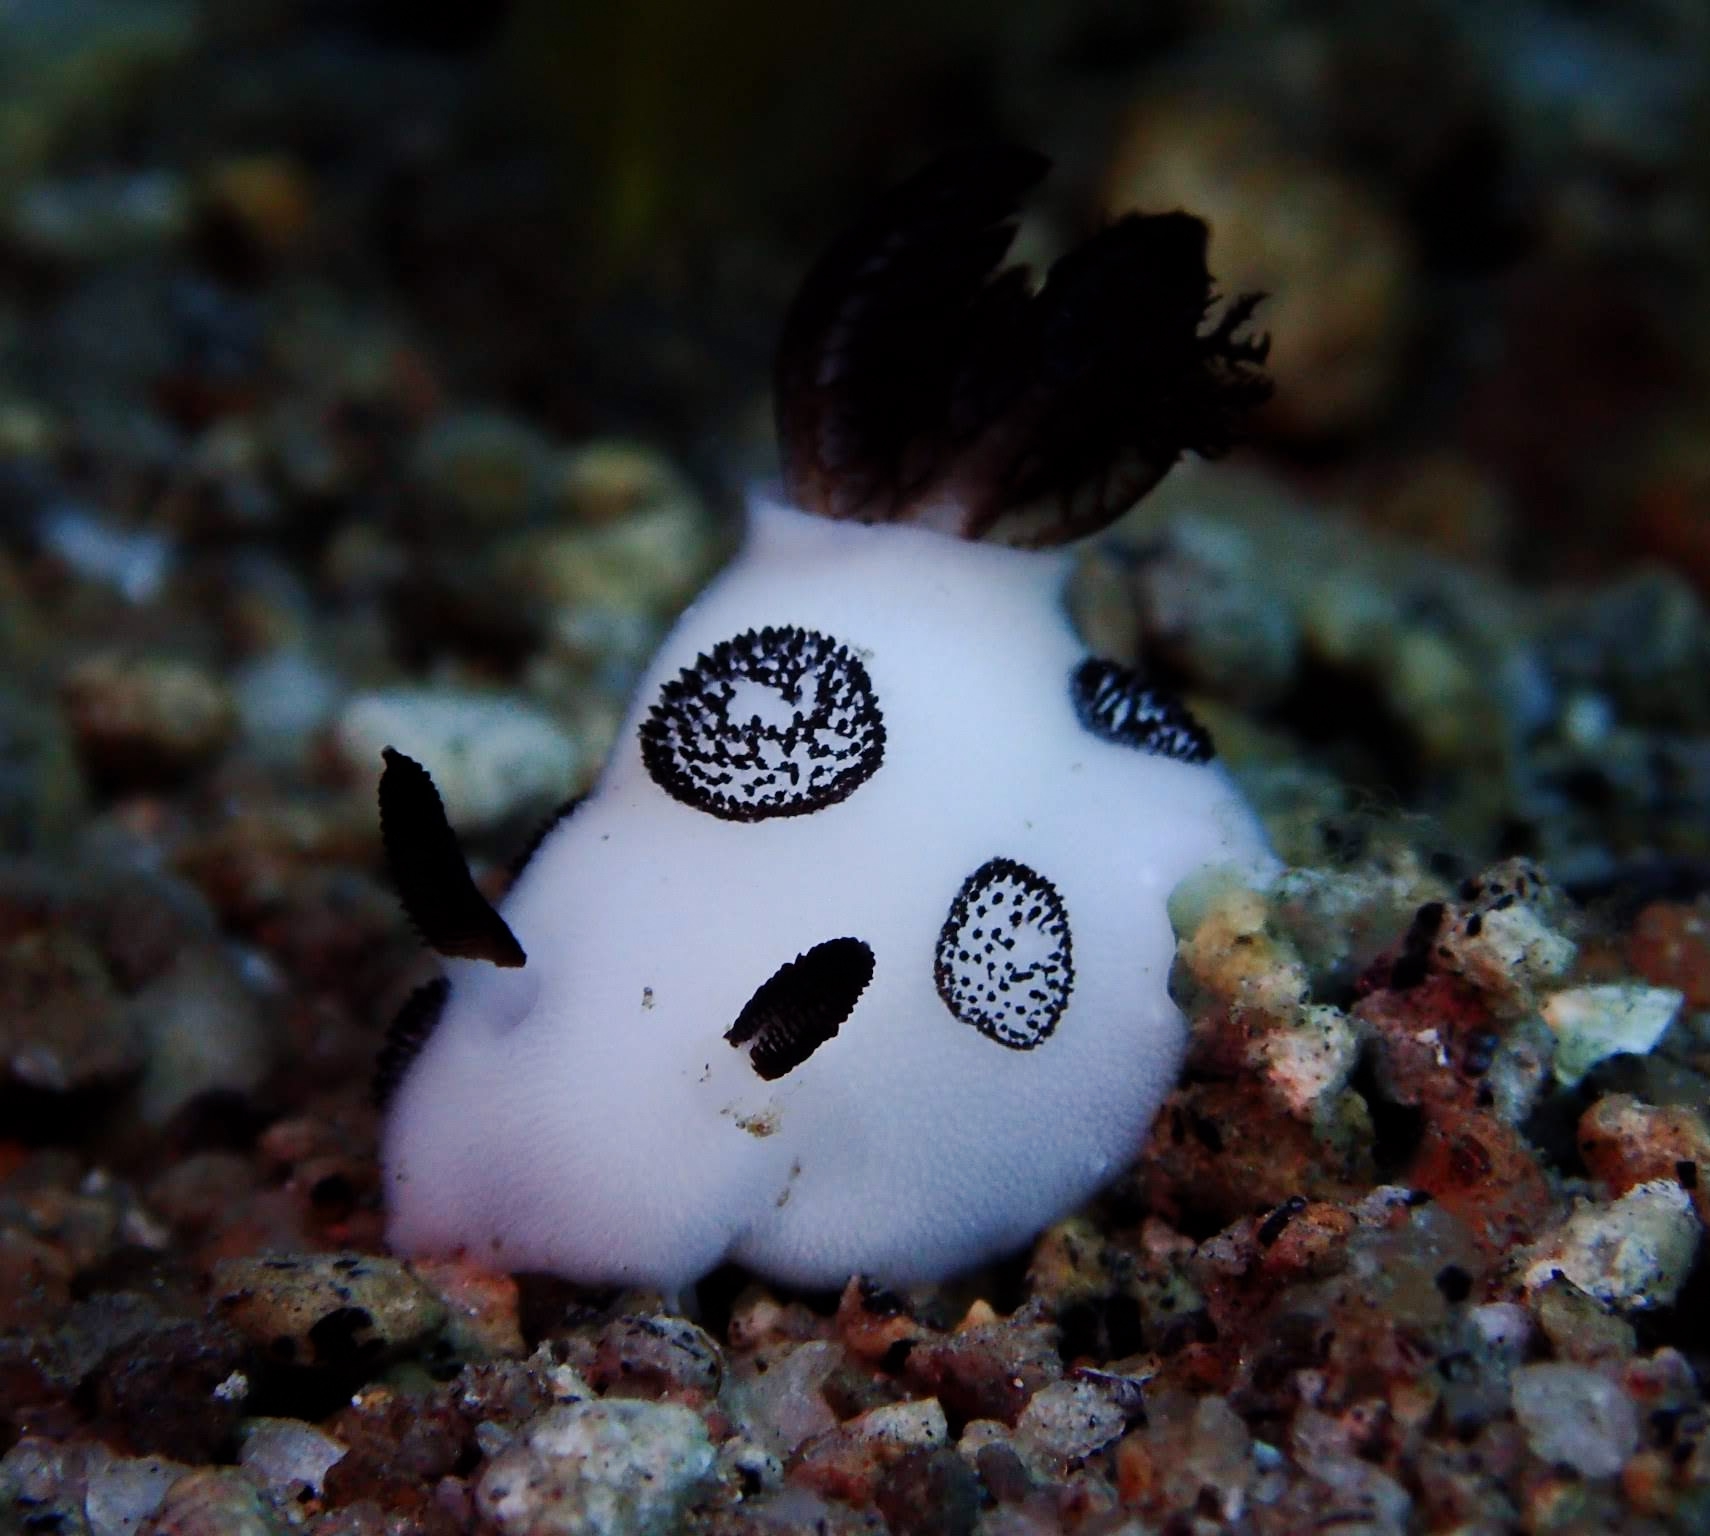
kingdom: Animalia
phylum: Mollusca
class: Gastropoda
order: Nudibranchia
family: Discodorididae
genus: Jorunna
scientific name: Jorunna funebris
